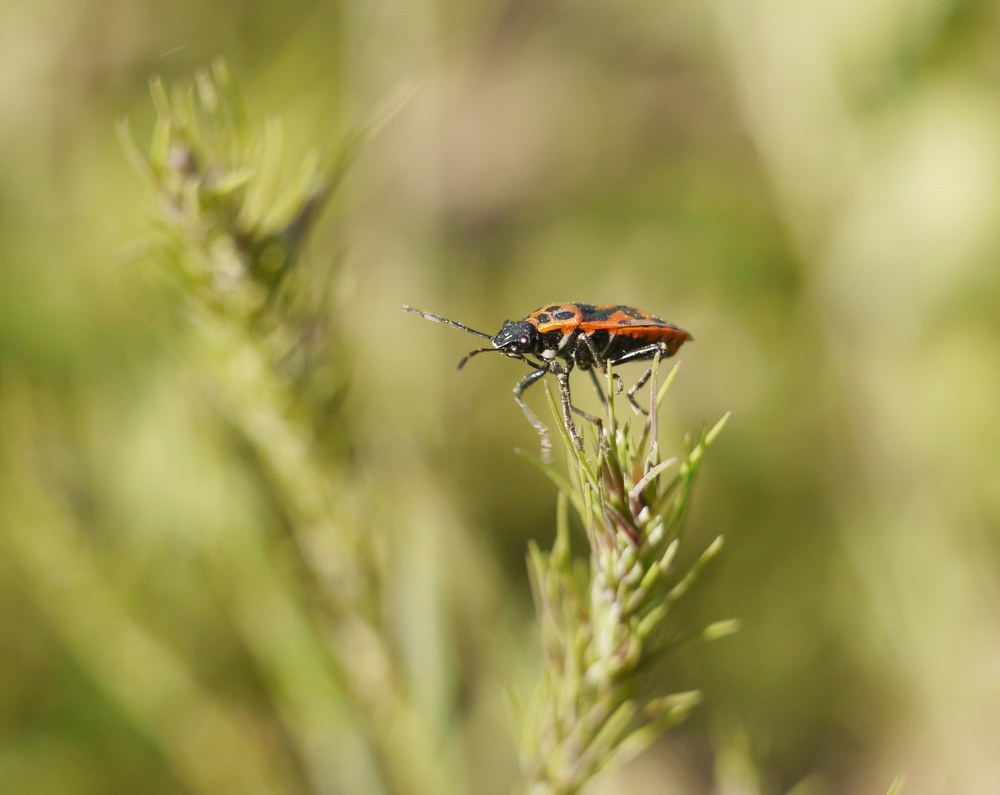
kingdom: Animalia
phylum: Arthropoda
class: Insecta
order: Hemiptera
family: Pentatomidae
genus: Eurydema
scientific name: Eurydema ornata
